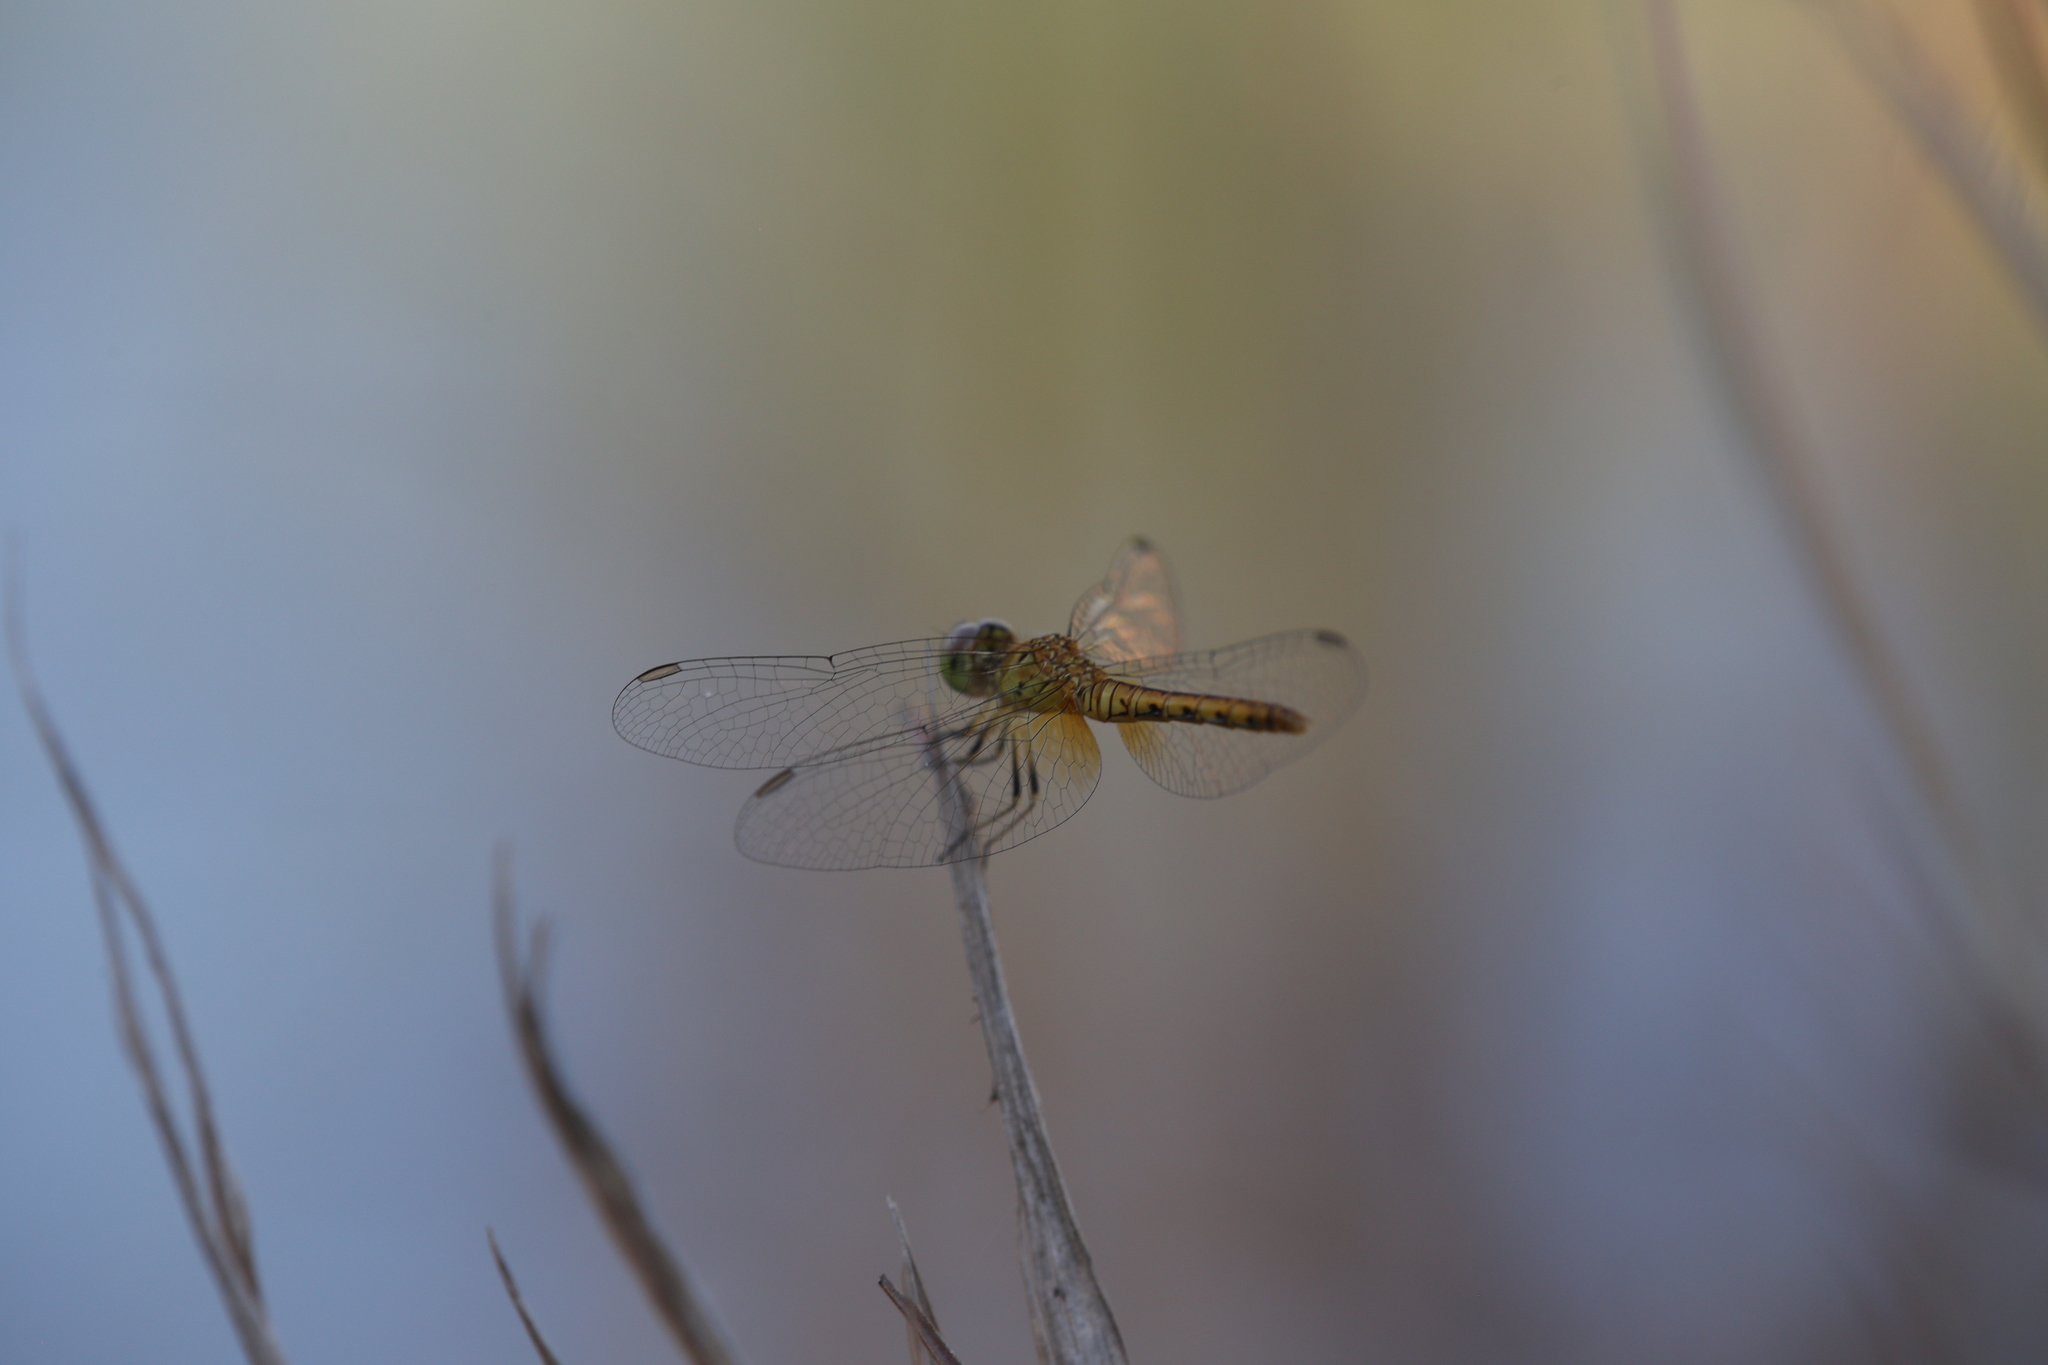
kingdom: Animalia
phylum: Arthropoda
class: Insecta
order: Odonata
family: Libellulidae
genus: Nannodiplax
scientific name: Nannodiplax rubra
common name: Pygmy percher
